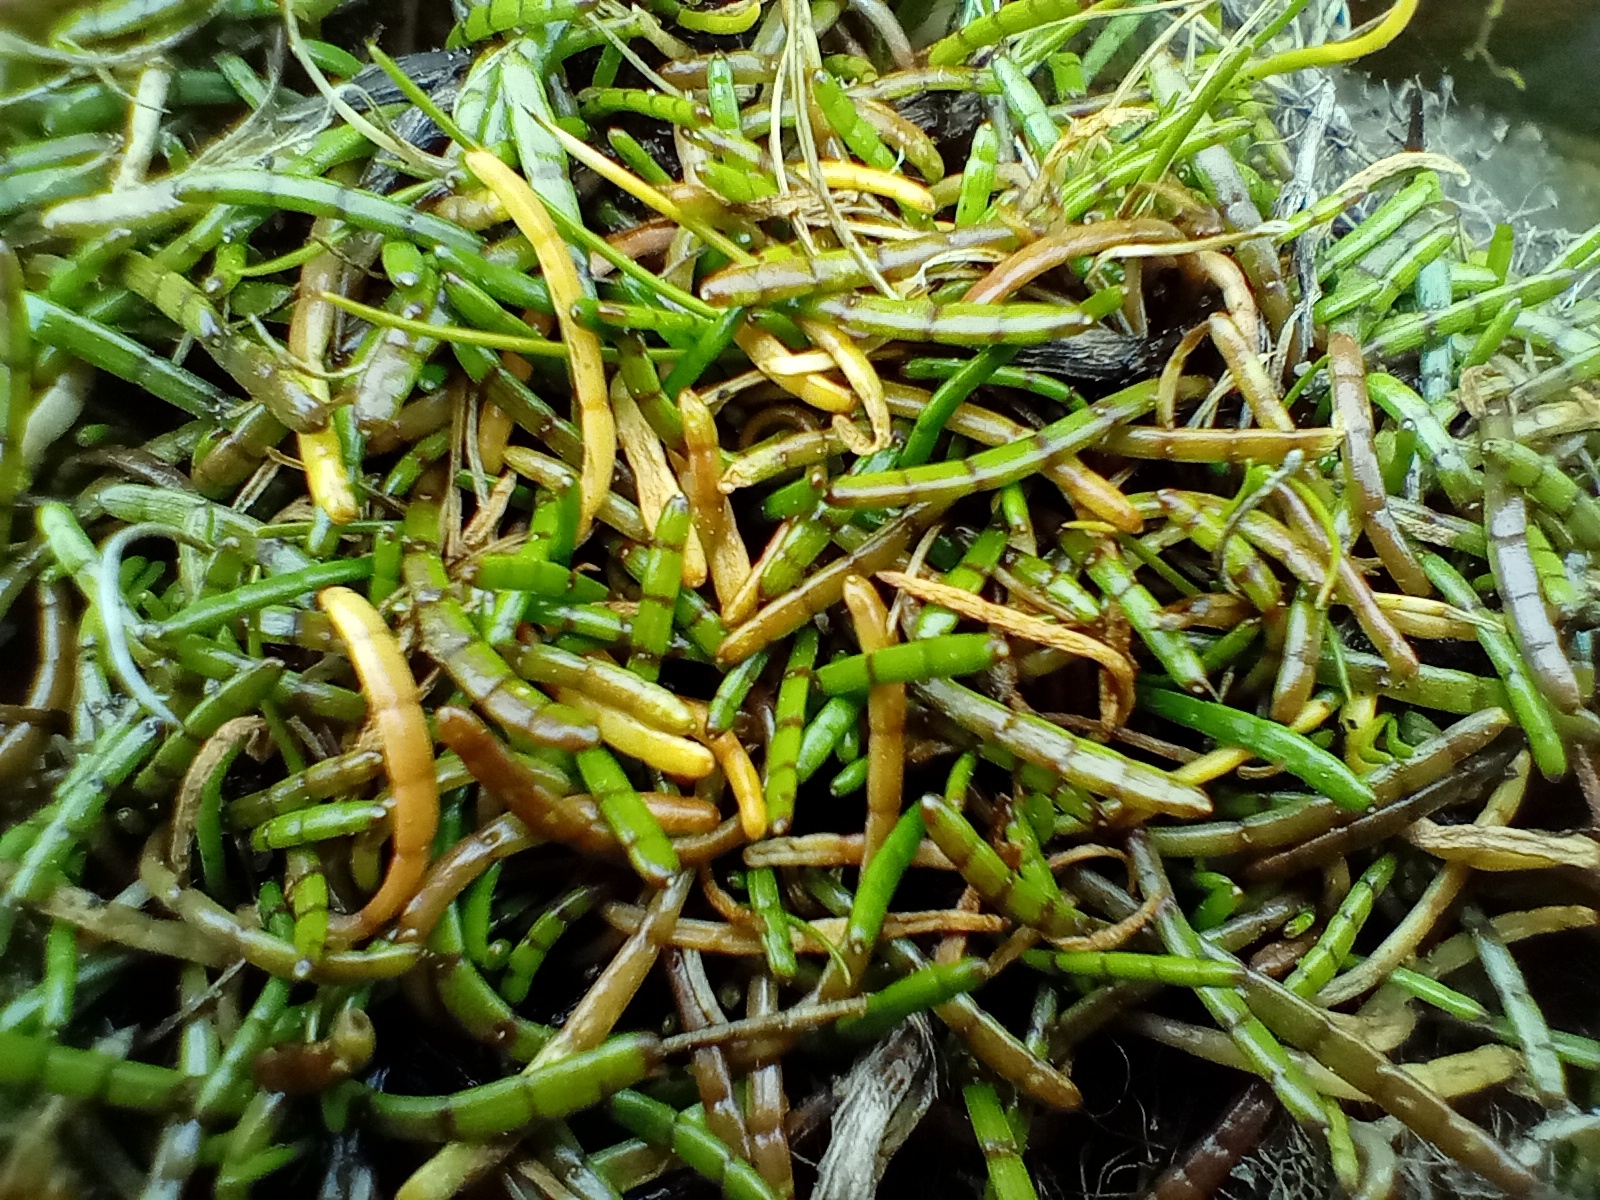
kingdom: Plantae
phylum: Tracheophyta
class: Magnoliopsida
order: Apiales
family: Apiaceae
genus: Lilaeopsis
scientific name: Lilaeopsis novae-zelandiae
